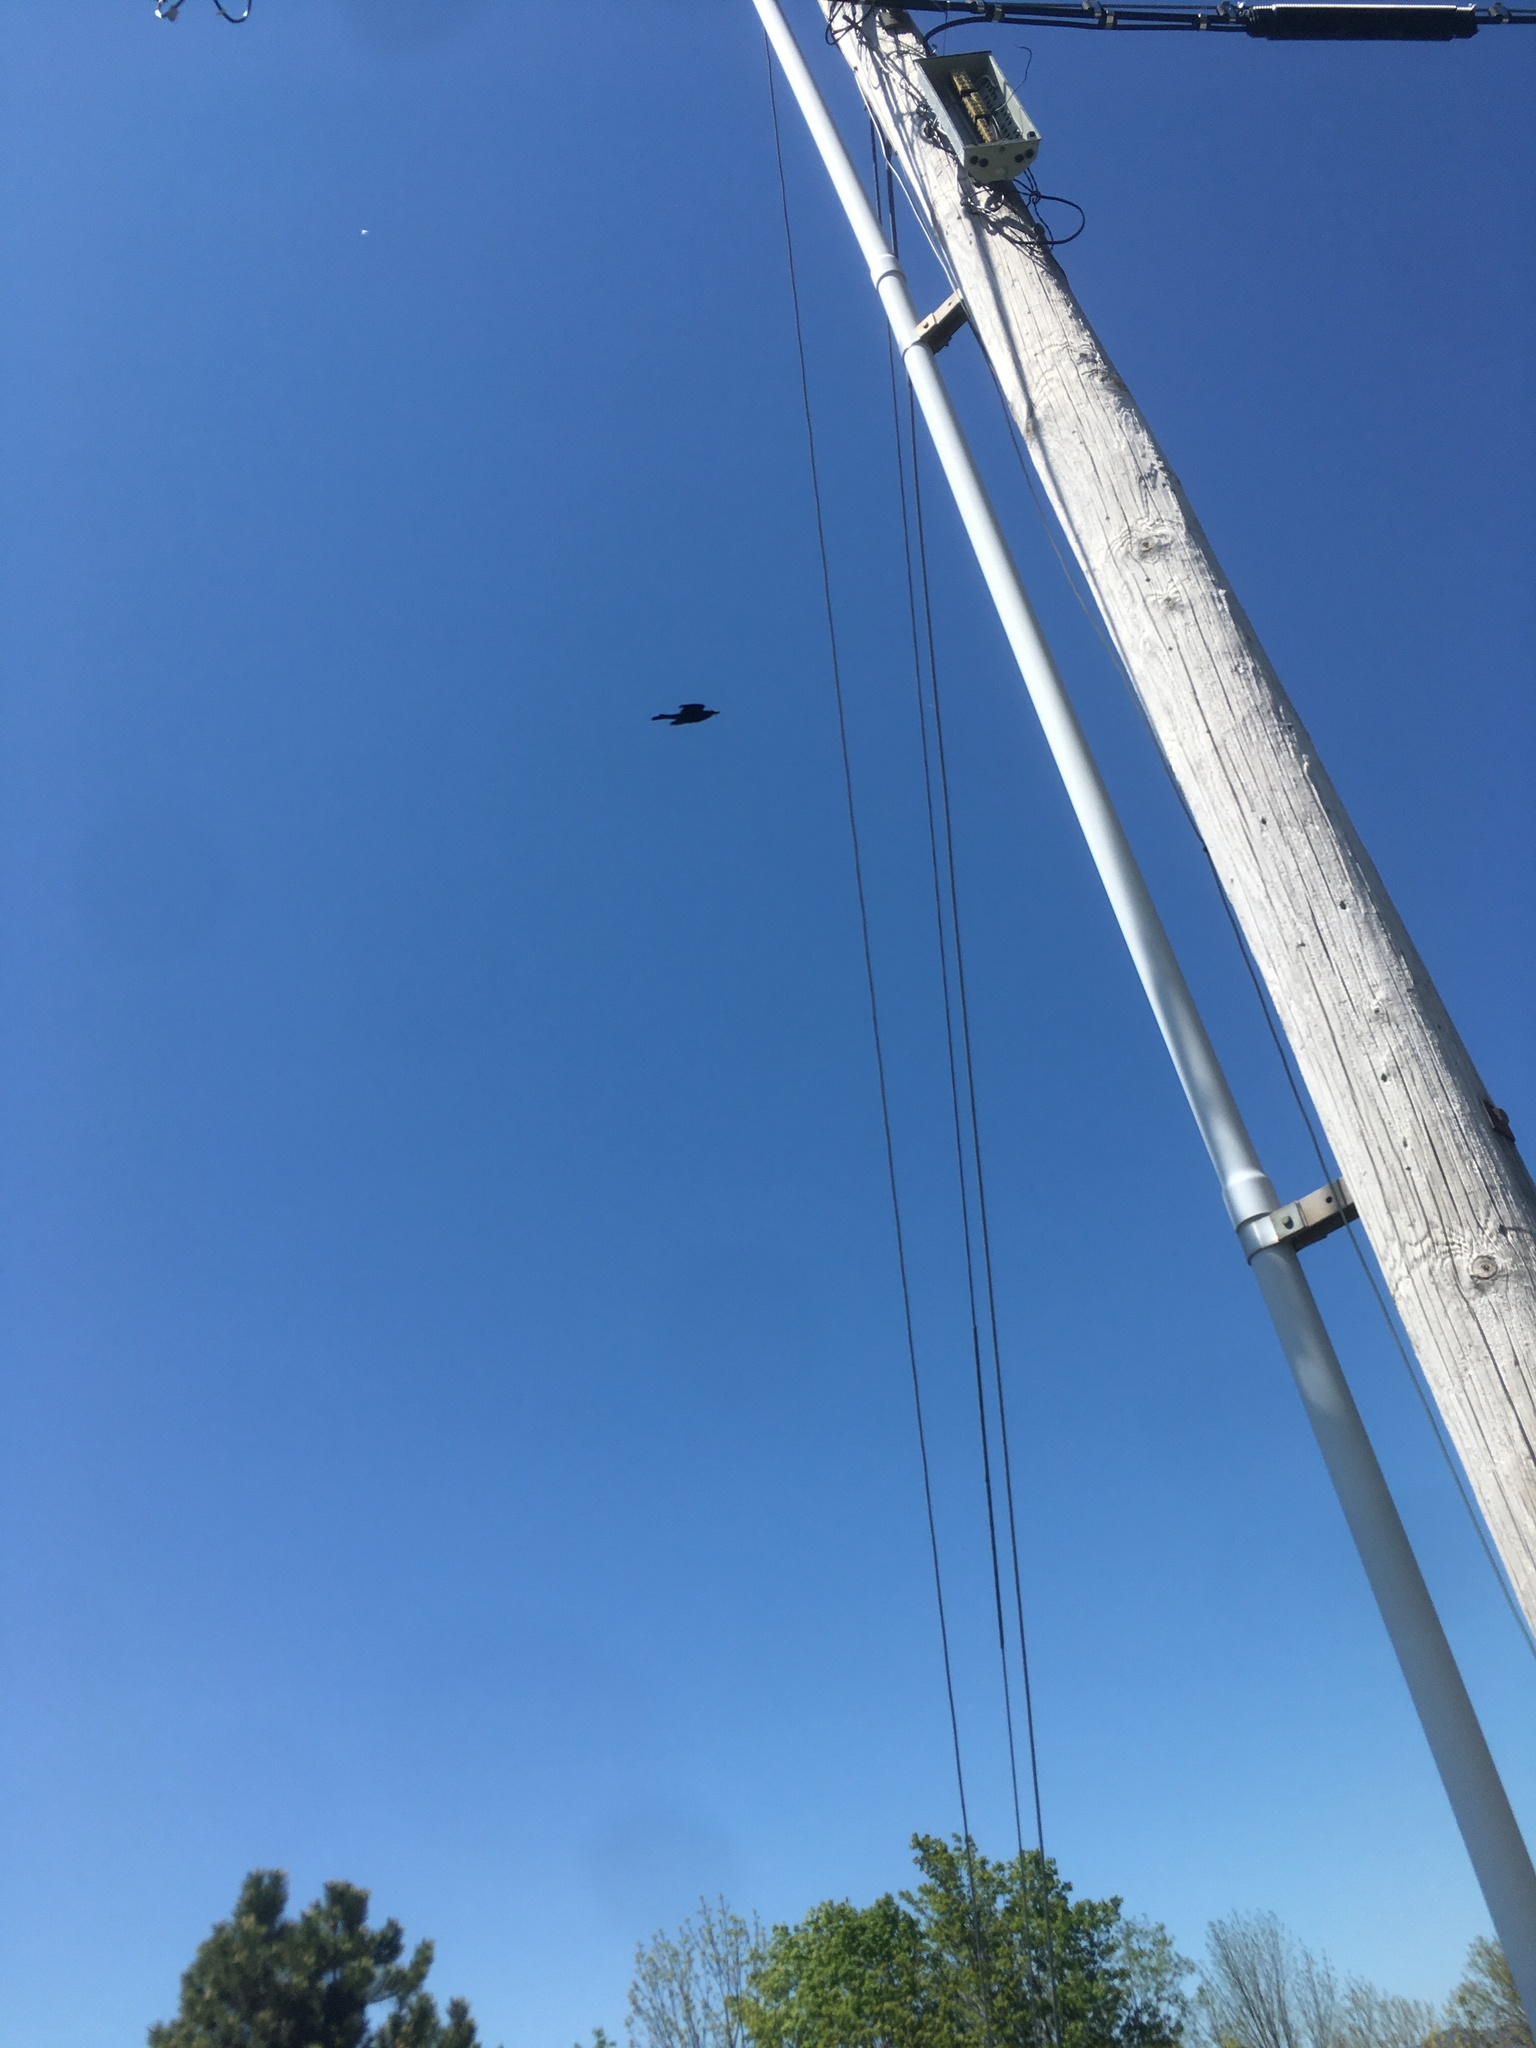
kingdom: Animalia
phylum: Chordata
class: Aves
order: Passeriformes
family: Icteridae
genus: Quiscalus
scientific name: Quiscalus quiscula
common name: Common grackle
